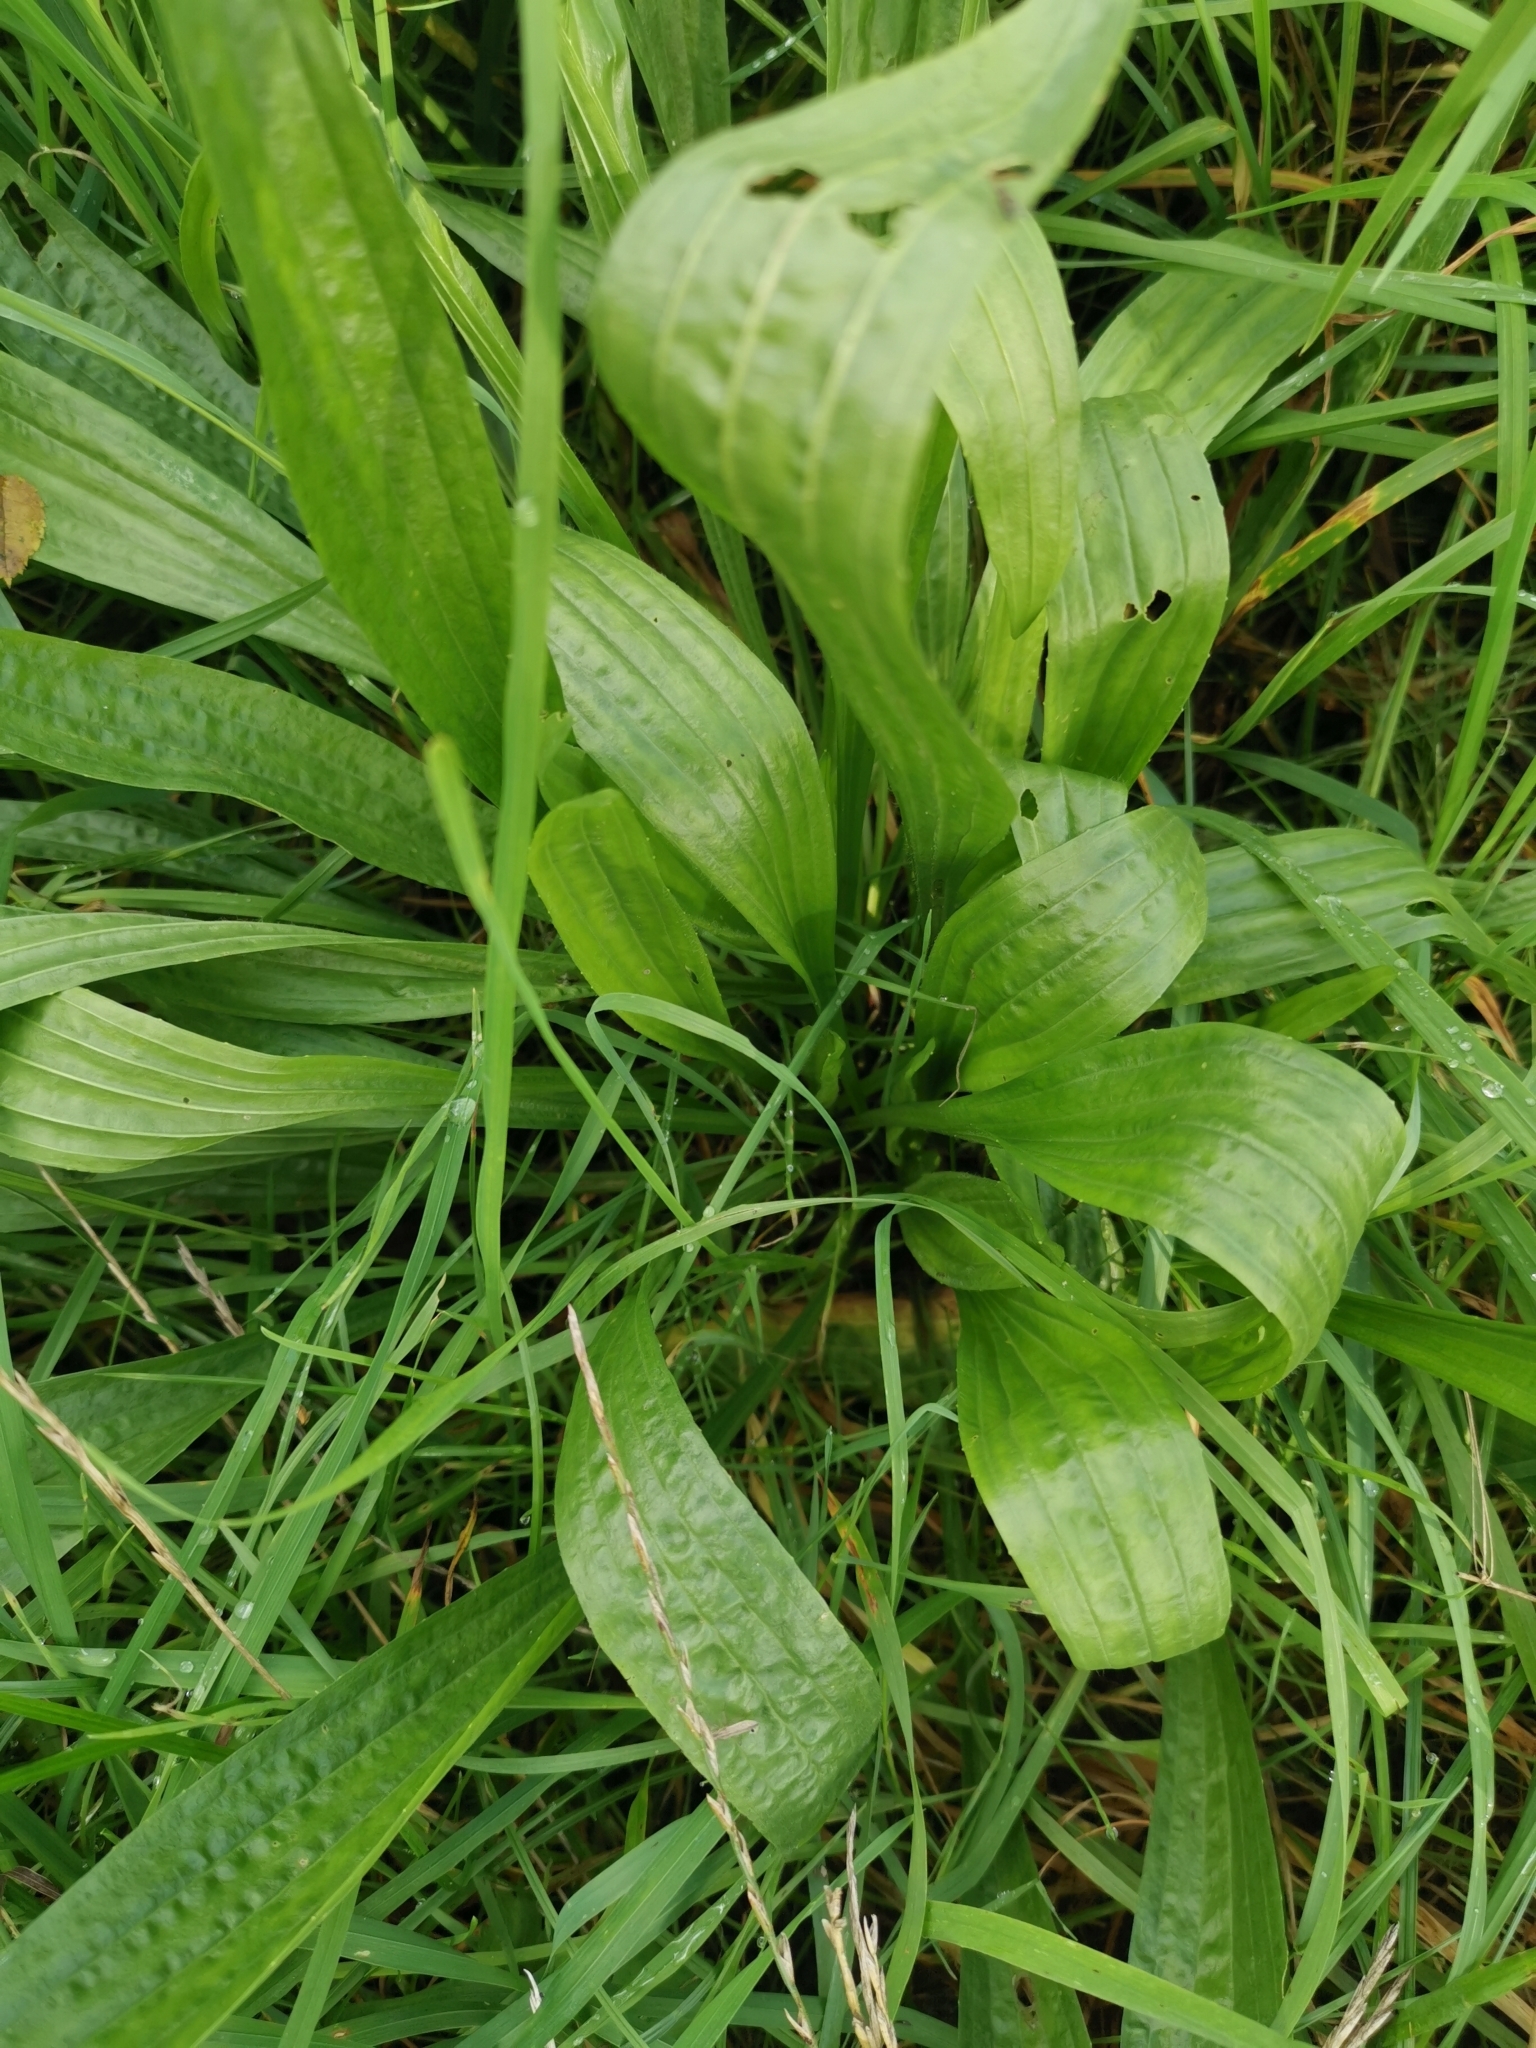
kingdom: Plantae
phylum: Tracheophyta
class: Magnoliopsida
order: Lamiales
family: Plantaginaceae
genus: Plantago
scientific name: Plantago lanceolata
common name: Ribwort plantain
